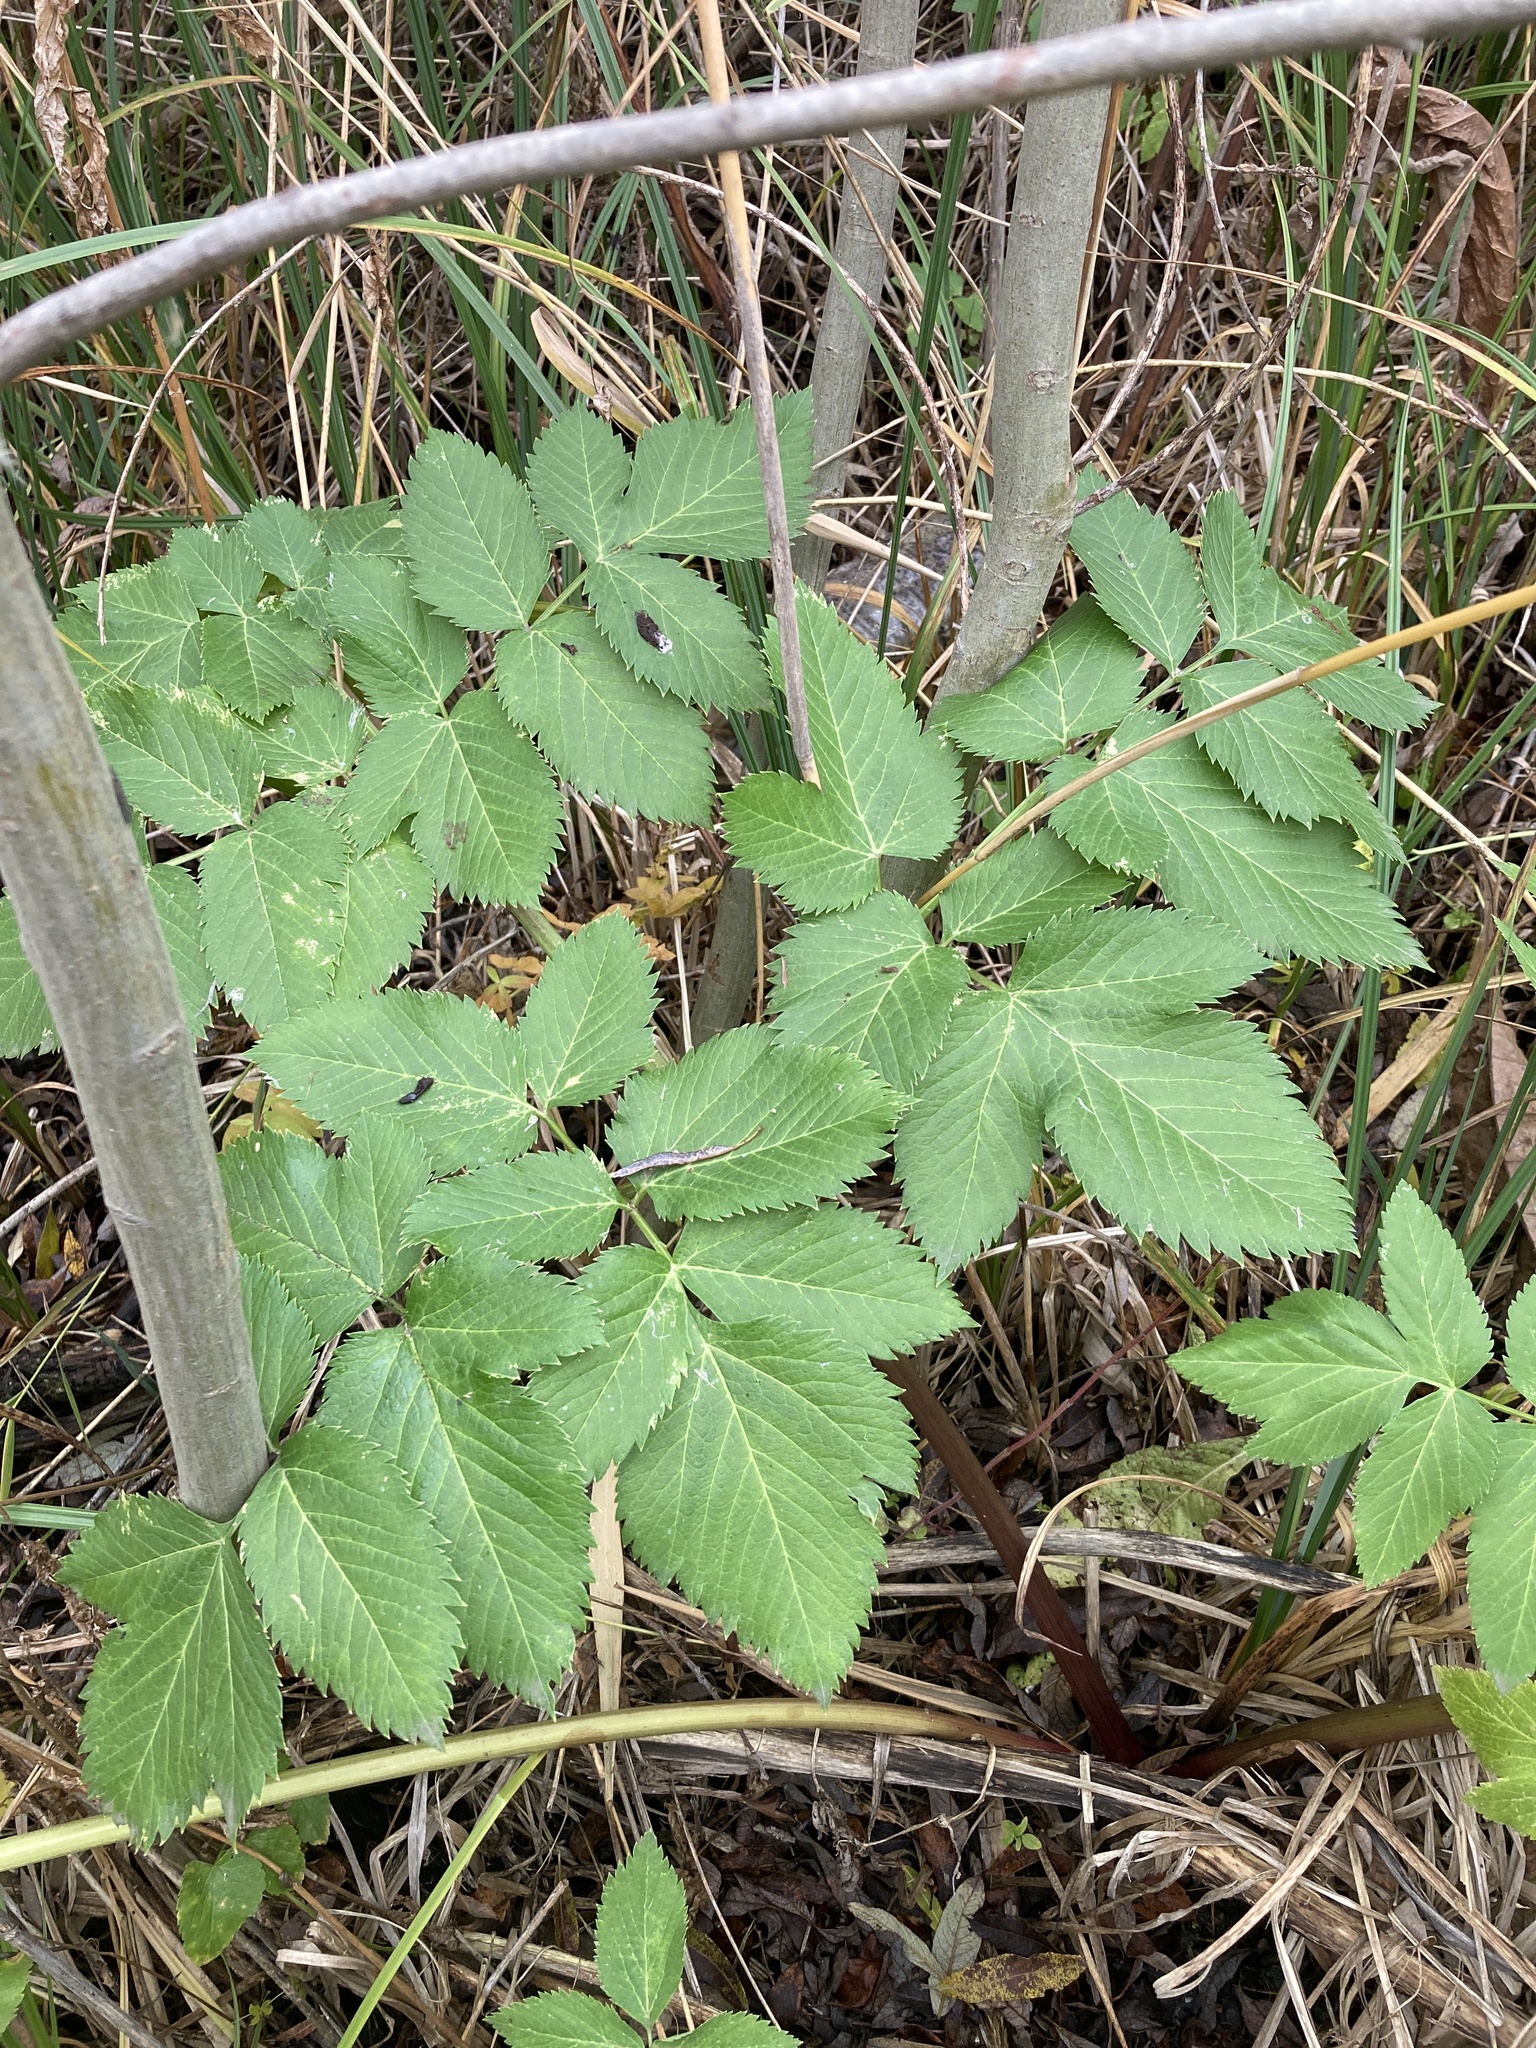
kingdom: Plantae
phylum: Tracheophyta
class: Magnoliopsida
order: Apiales
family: Apiaceae
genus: Angelica
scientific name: Angelica archangelica
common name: Garden angelica
